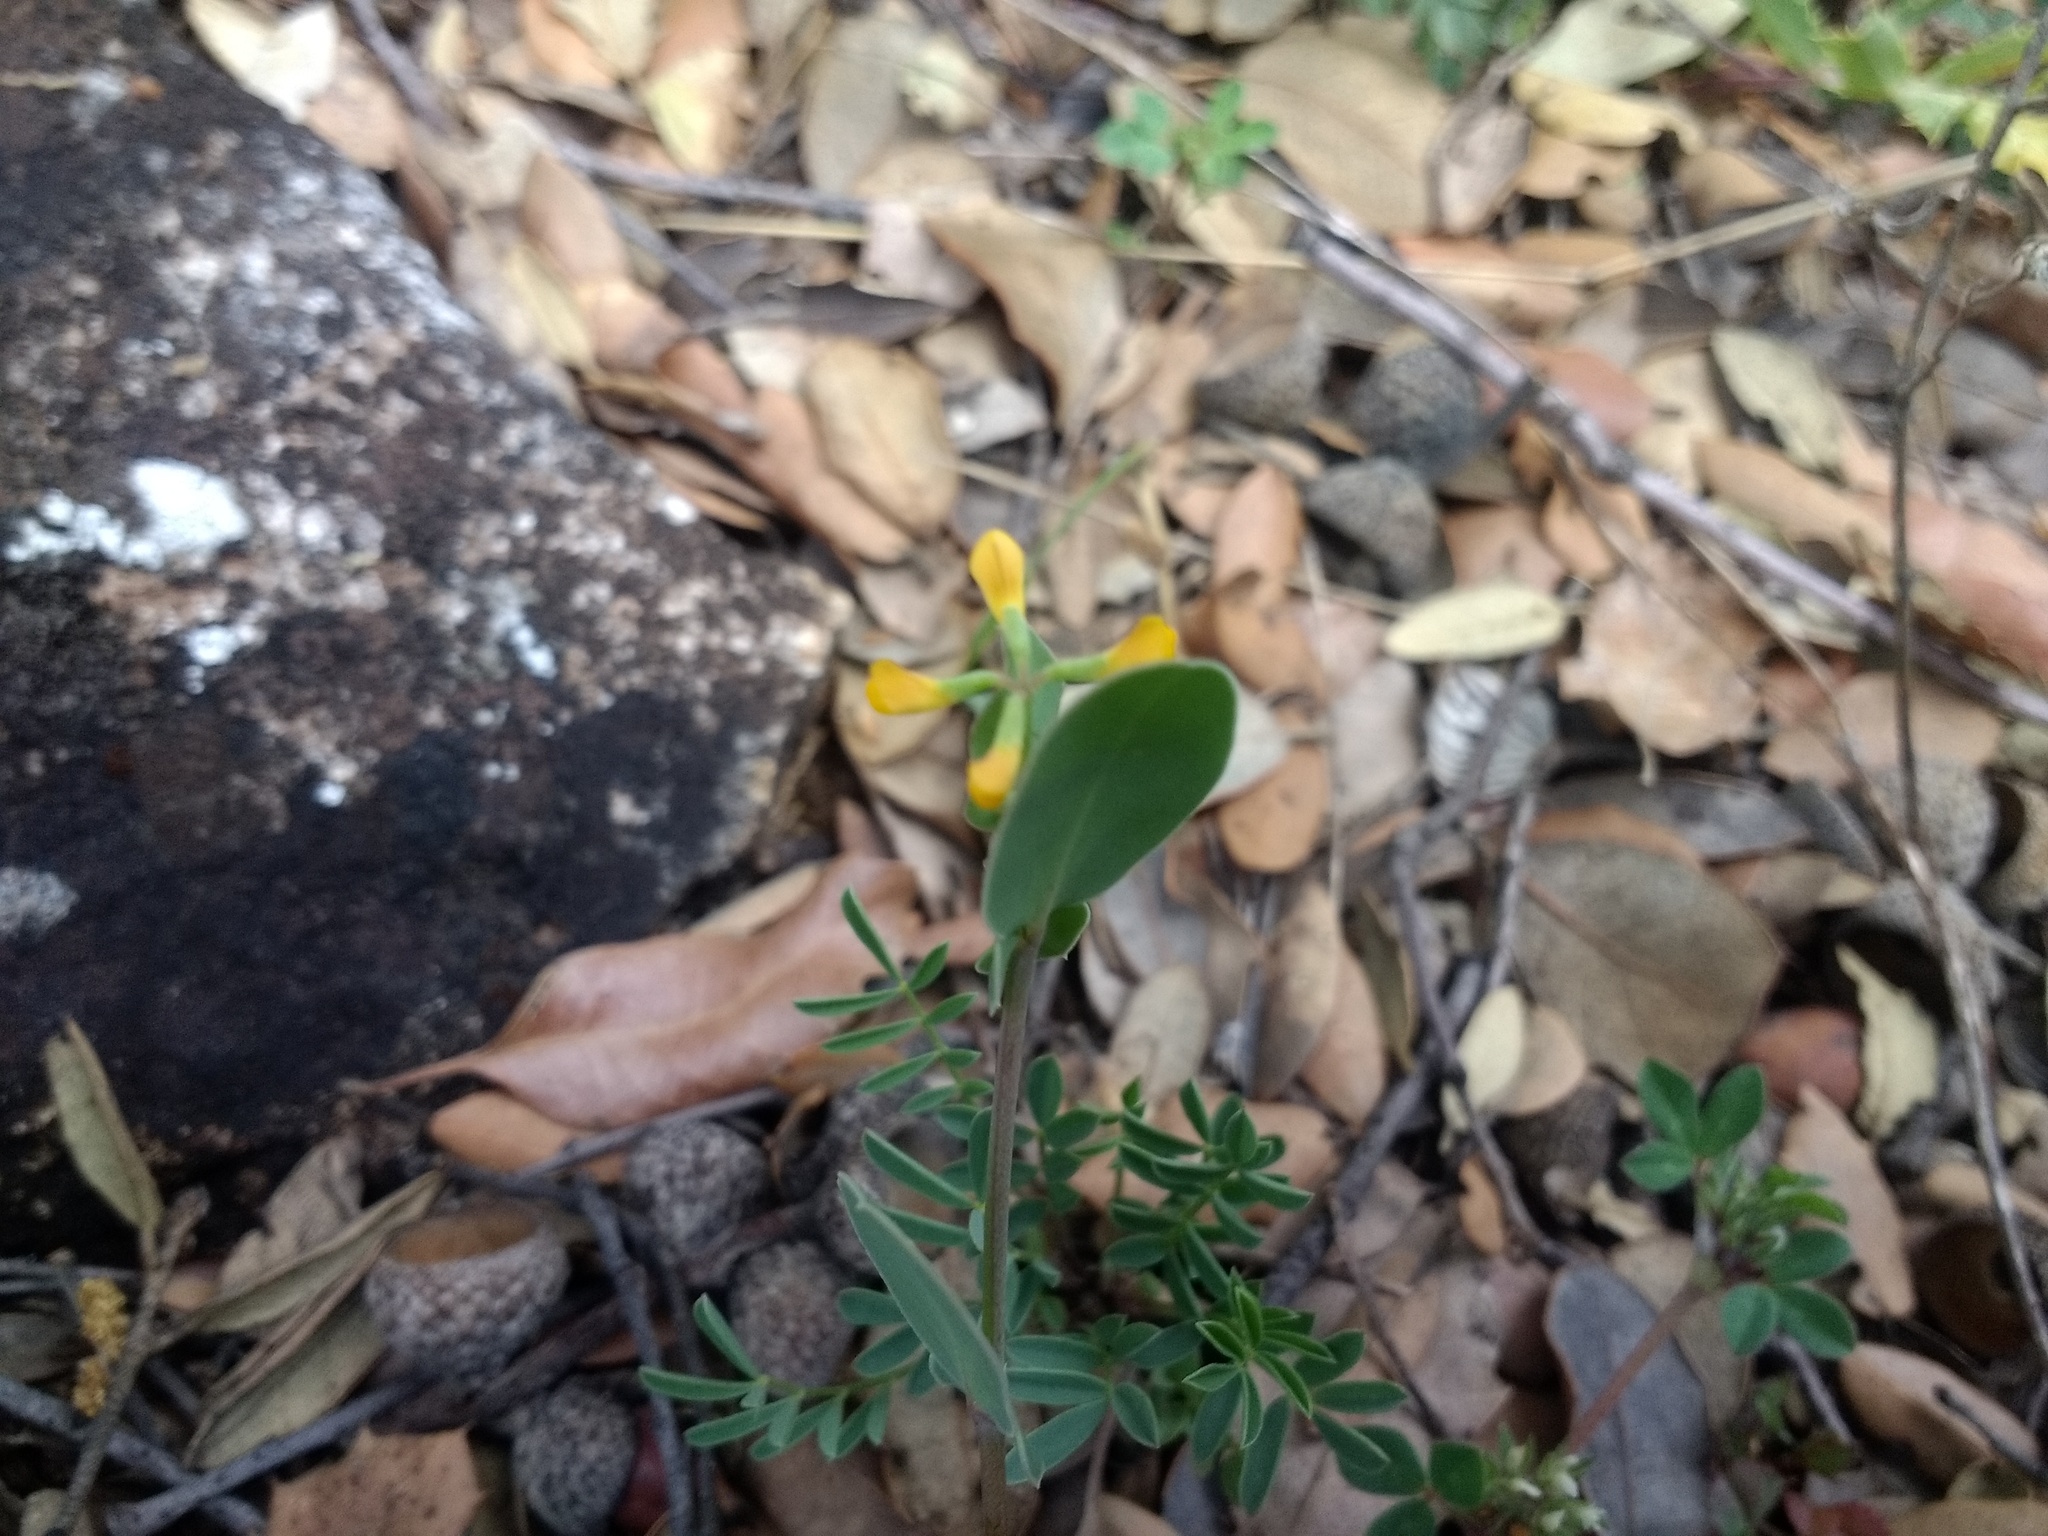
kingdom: Plantae
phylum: Tracheophyta
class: Magnoliopsida
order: Fabales
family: Fabaceae
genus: Coronilla
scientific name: Coronilla scorpioides
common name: Annual scorpion-vetch
